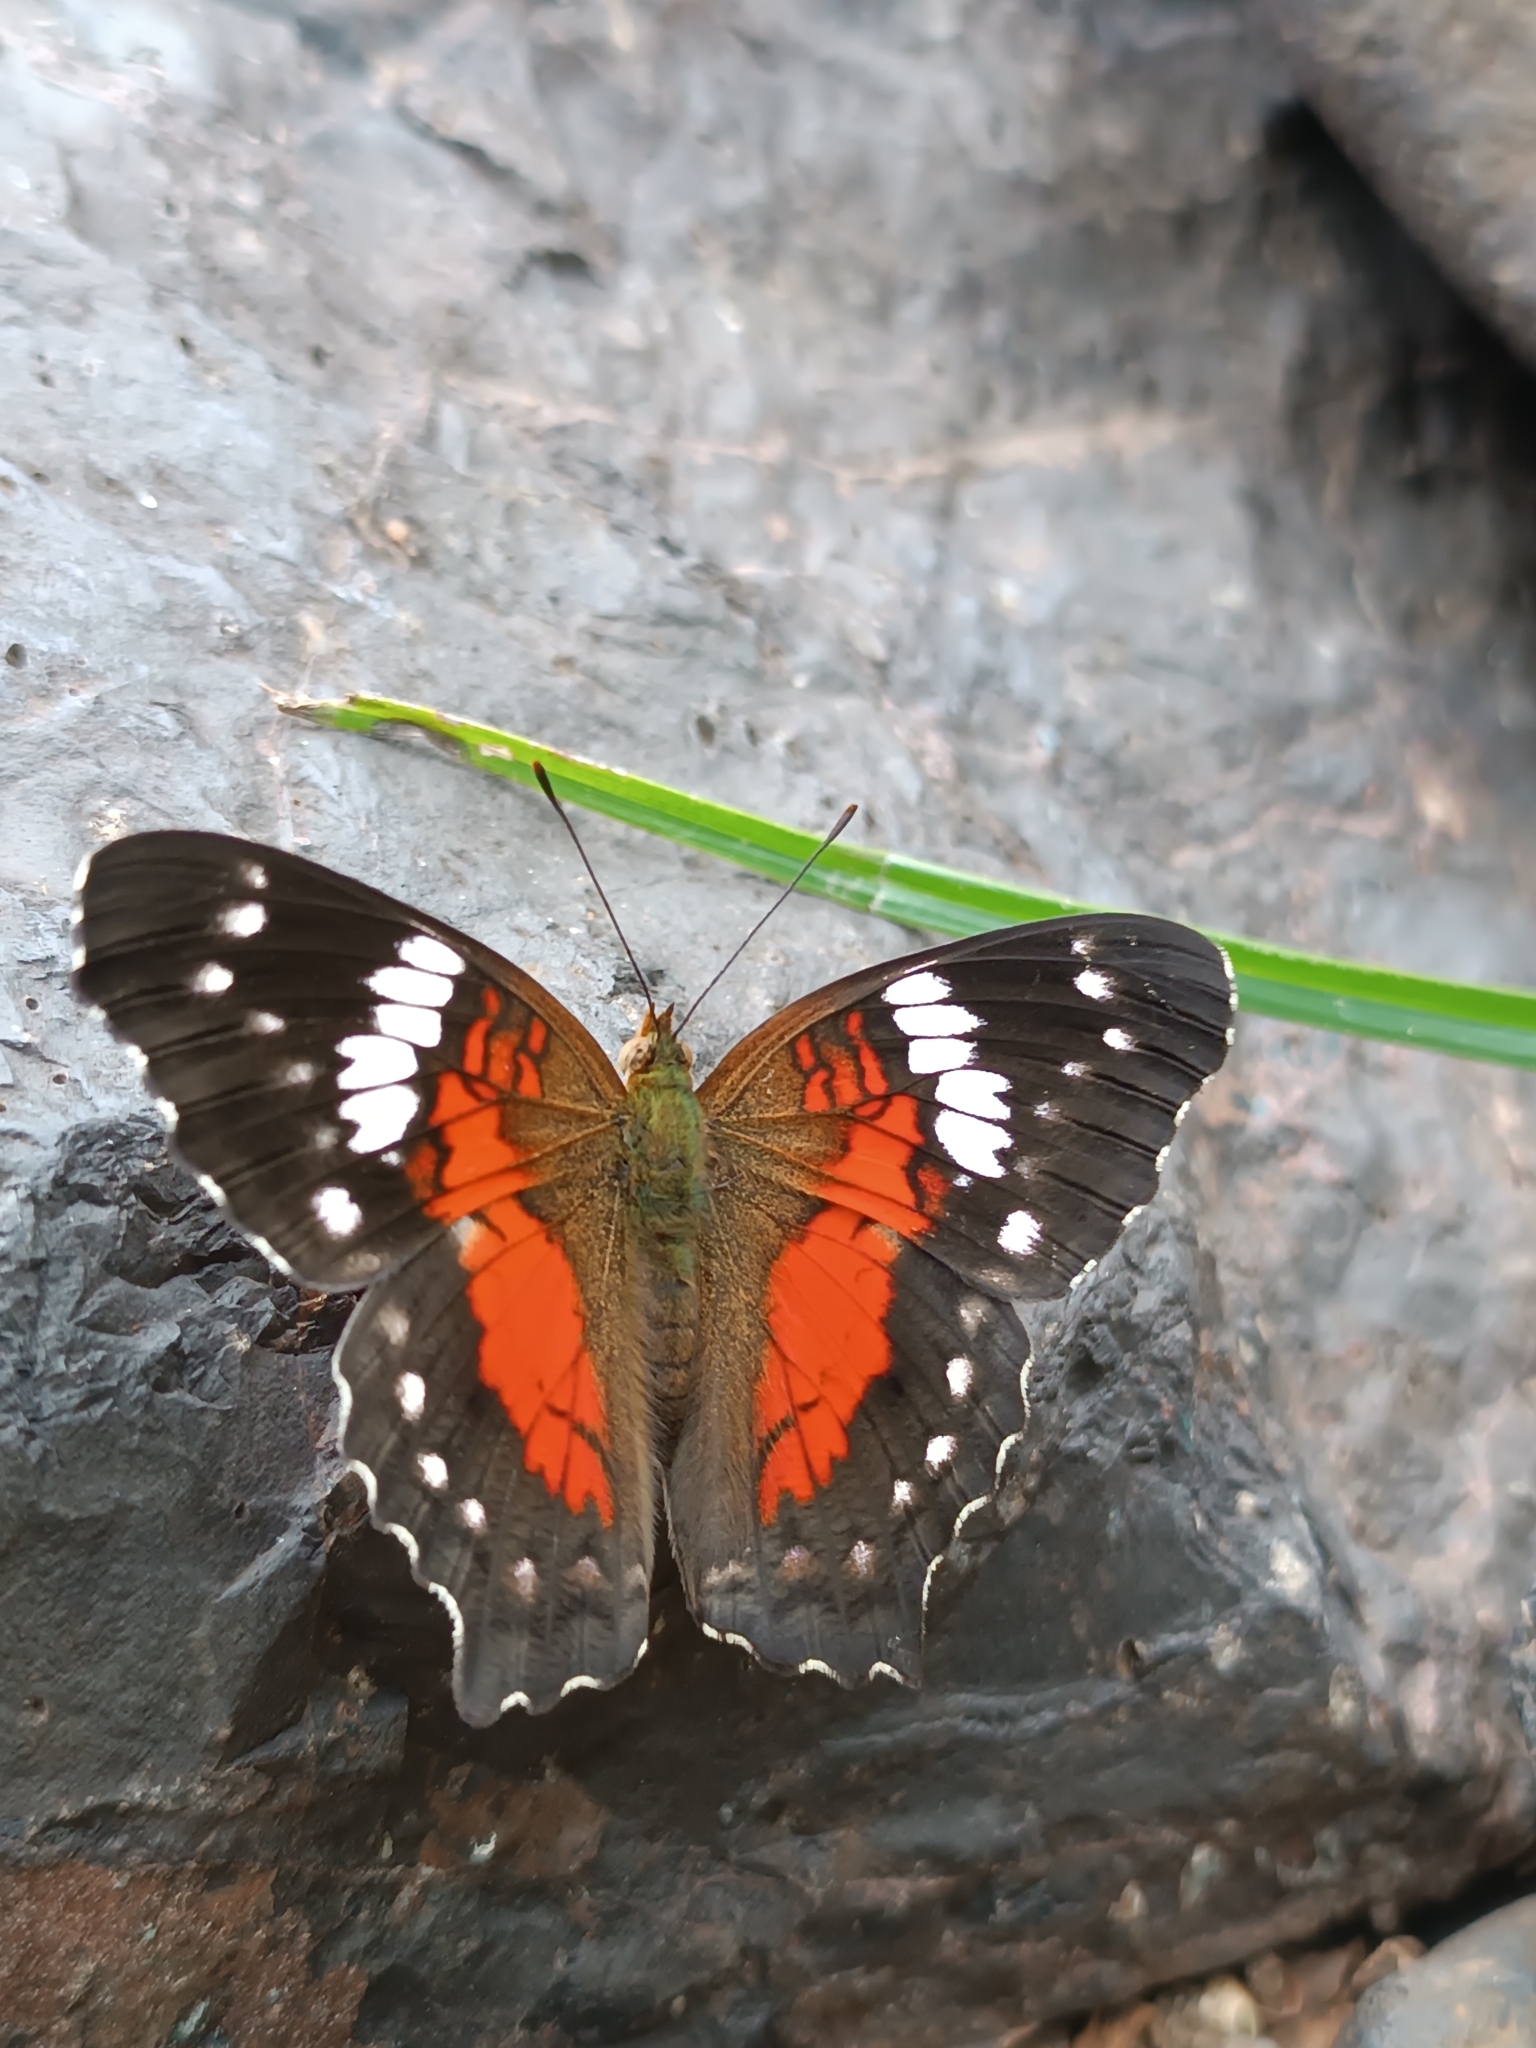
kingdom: Animalia
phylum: Arthropoda
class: Insecta
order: Lepidoptera
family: Nymphalidae
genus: Anartia
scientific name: Anartia amathea
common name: Red peacock
